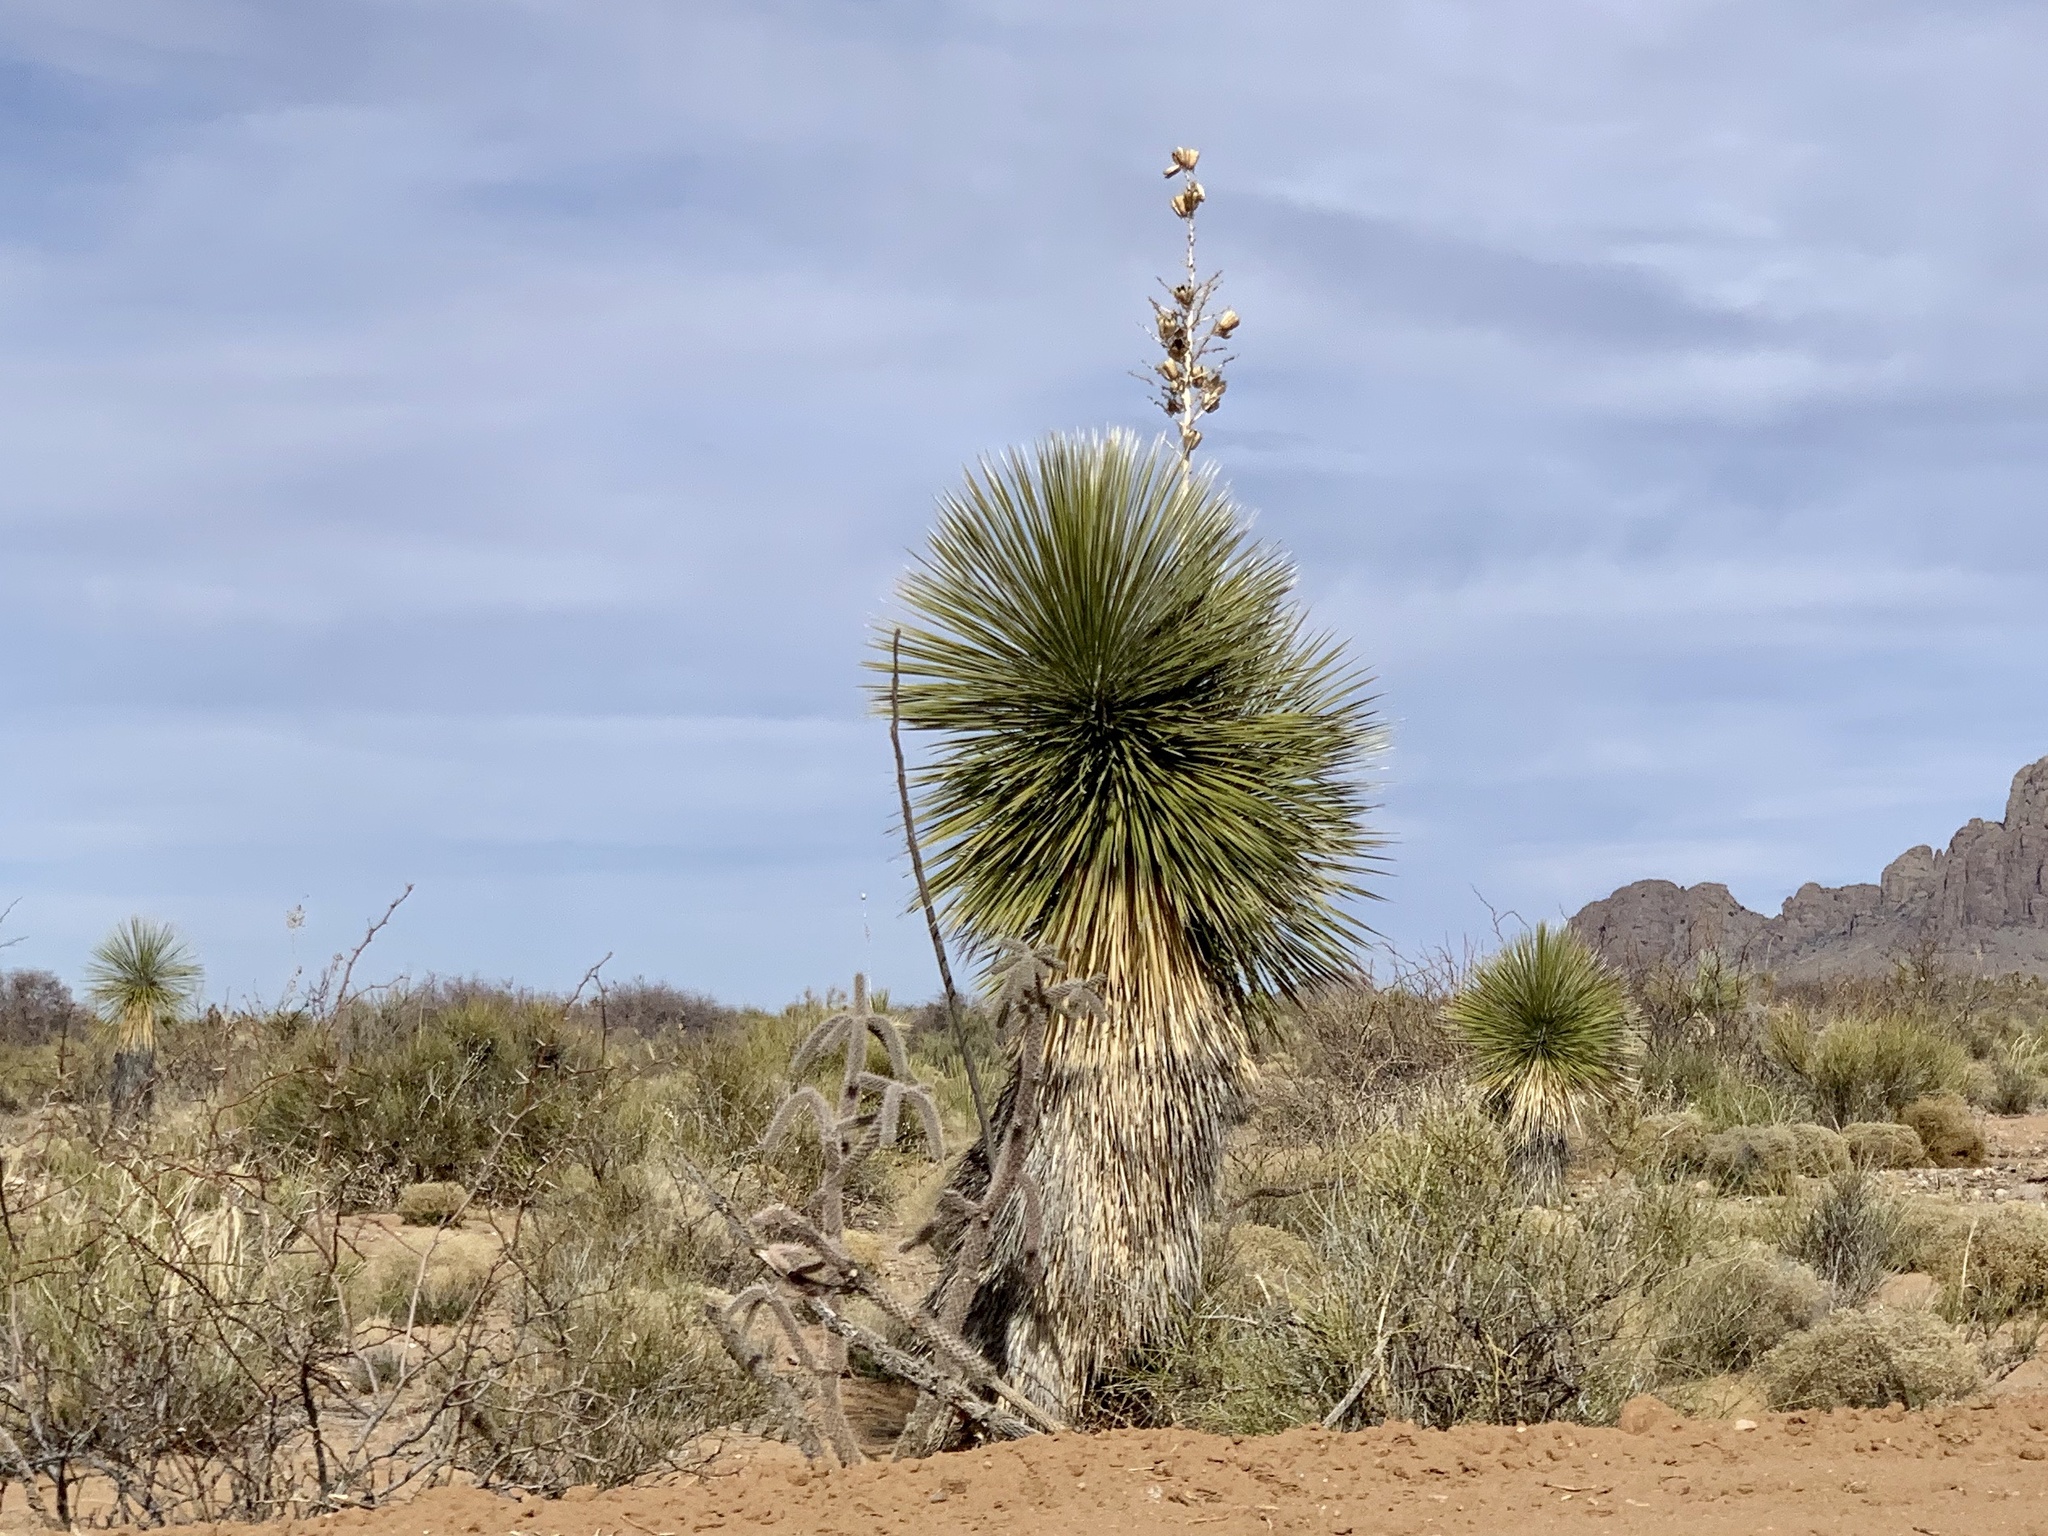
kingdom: Plantae
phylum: Tracheophyta
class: Liliopsida
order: Asparagales
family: Asparagaceae
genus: Yucca
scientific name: Yucca elata
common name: Palmella
